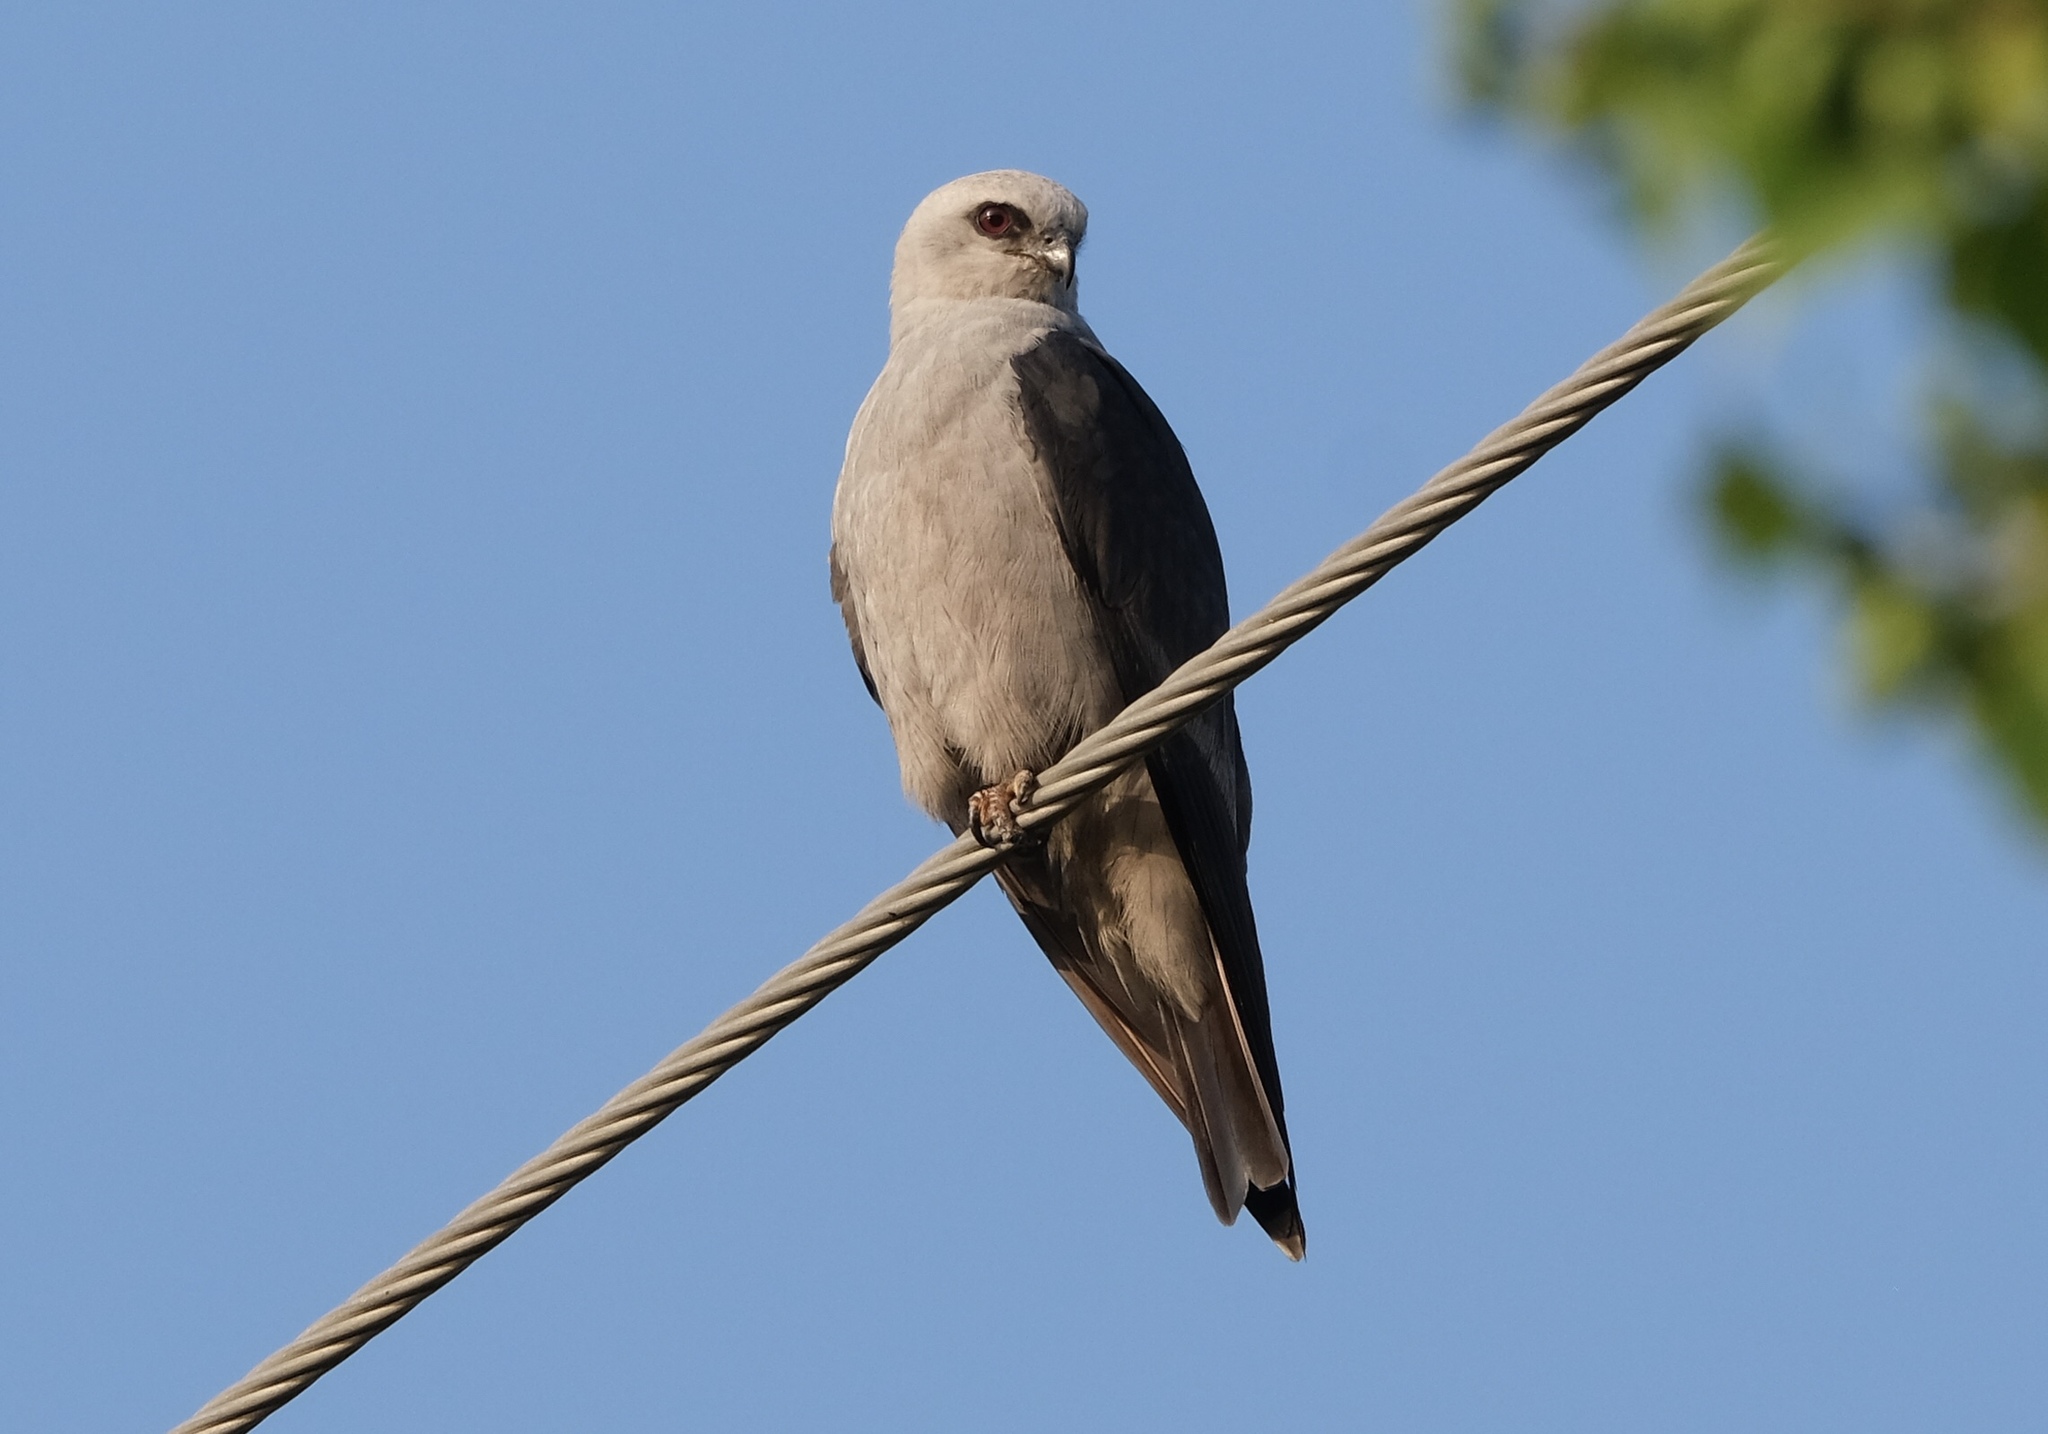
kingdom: Animalia
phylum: Chordata
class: Aves
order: Accipitriformes
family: Accipitridae
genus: Ictinia
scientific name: Ictinia mississippiensis
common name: Mississippi kite
